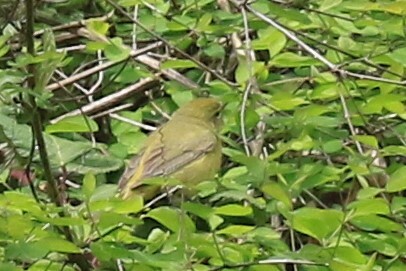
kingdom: Animalia
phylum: Chordata
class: Aves
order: Passeriformes
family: Parulidae
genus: Leiothlypis
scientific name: Leiothlypis celata
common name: Orange-crowned warbler
